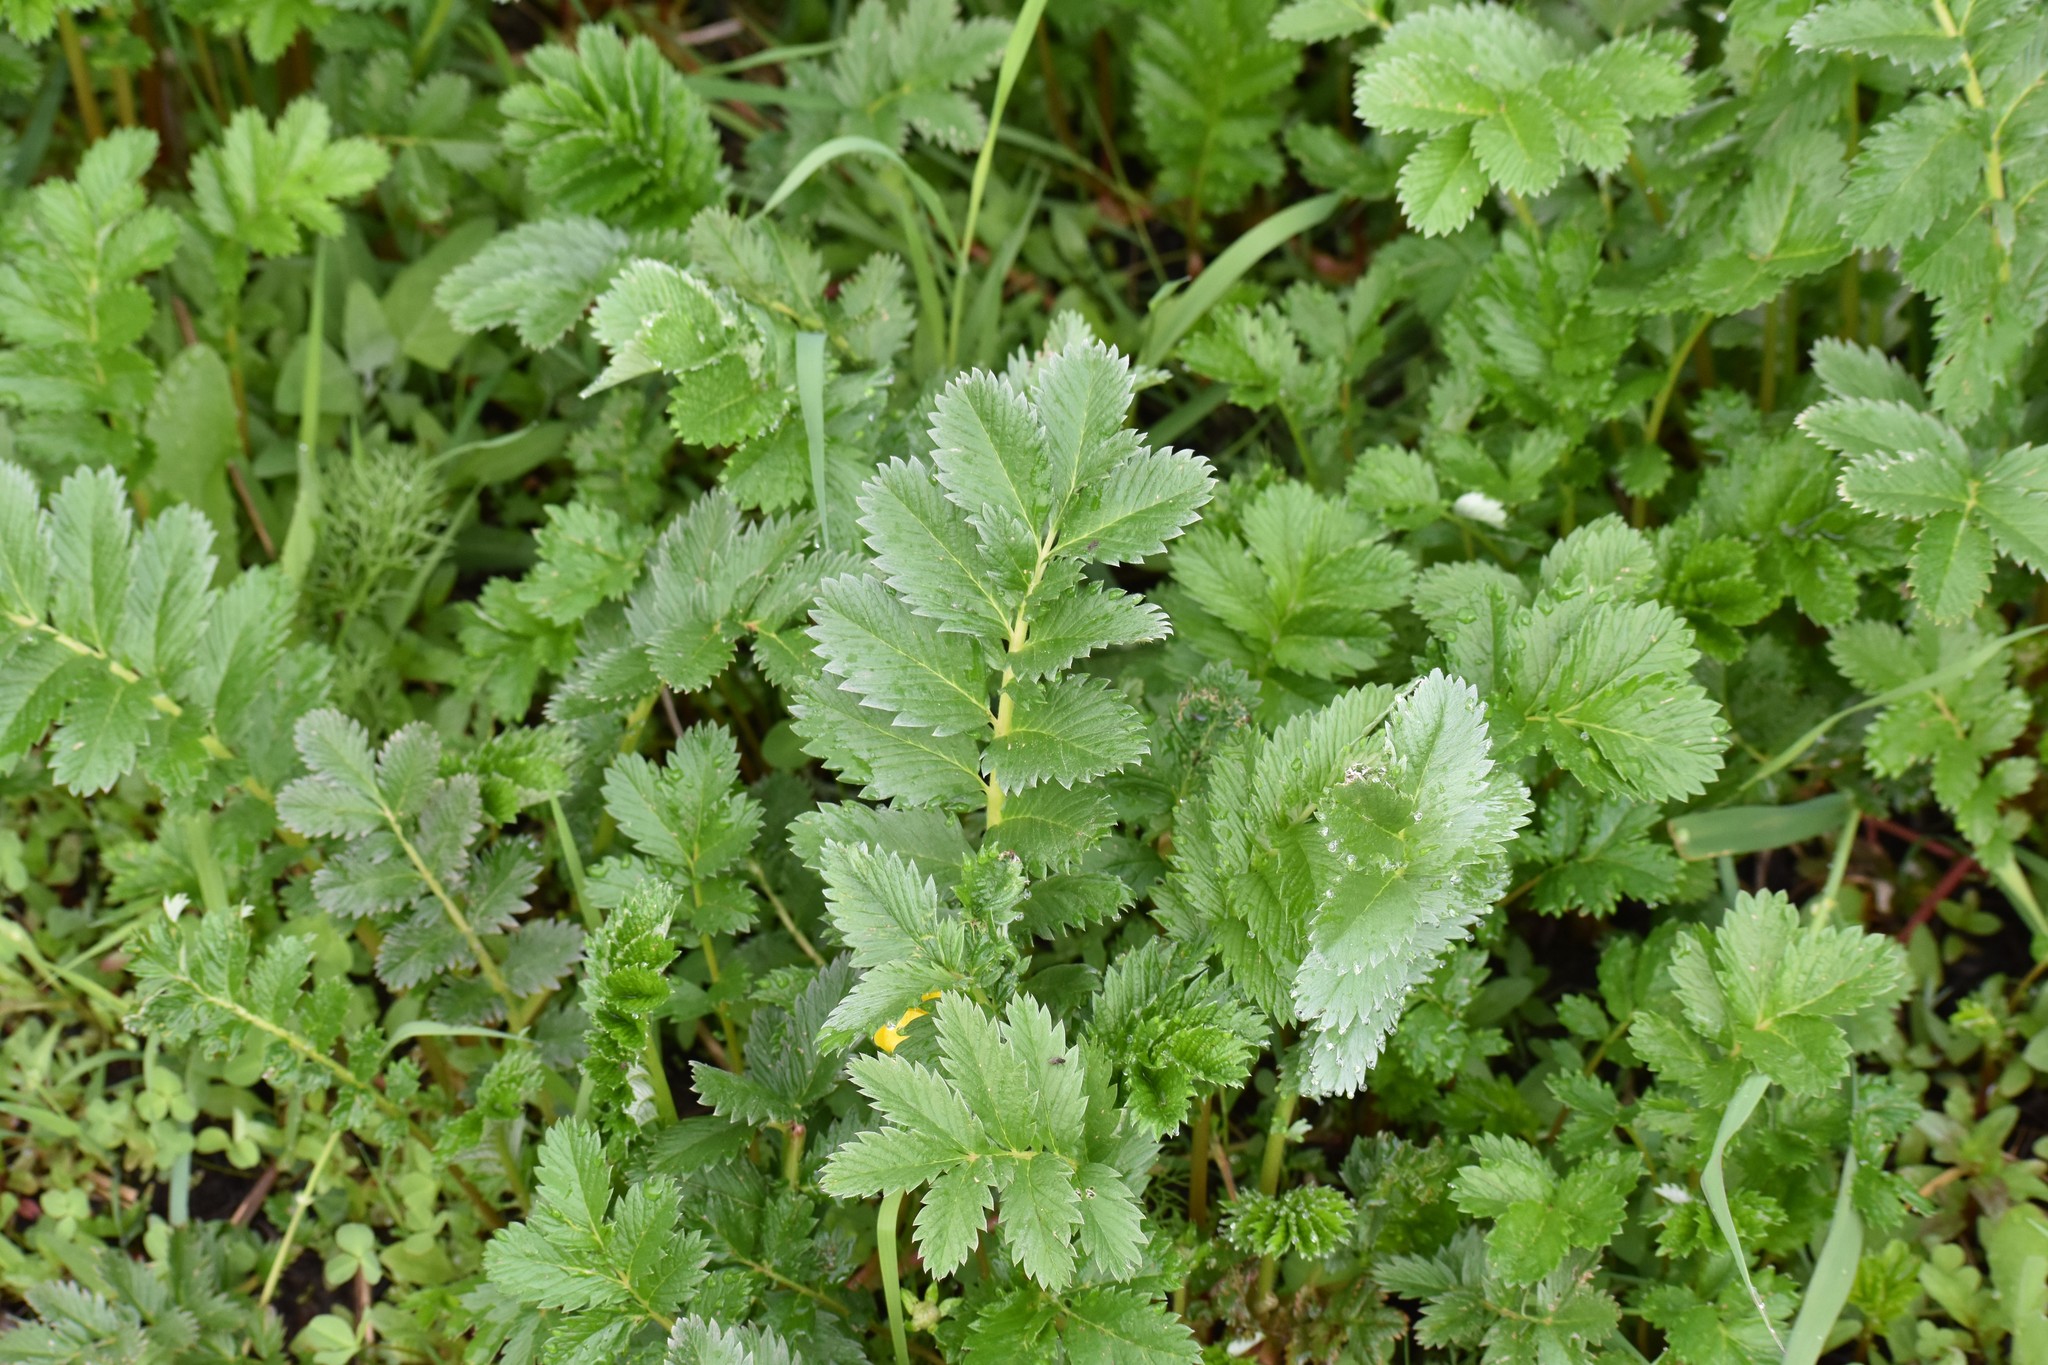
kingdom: Plantae
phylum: Tracheophyta
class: Magnoliopsida
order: Rosales
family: Rosaceae
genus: Argentina
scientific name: Argentina anserina
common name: Common silverweed
